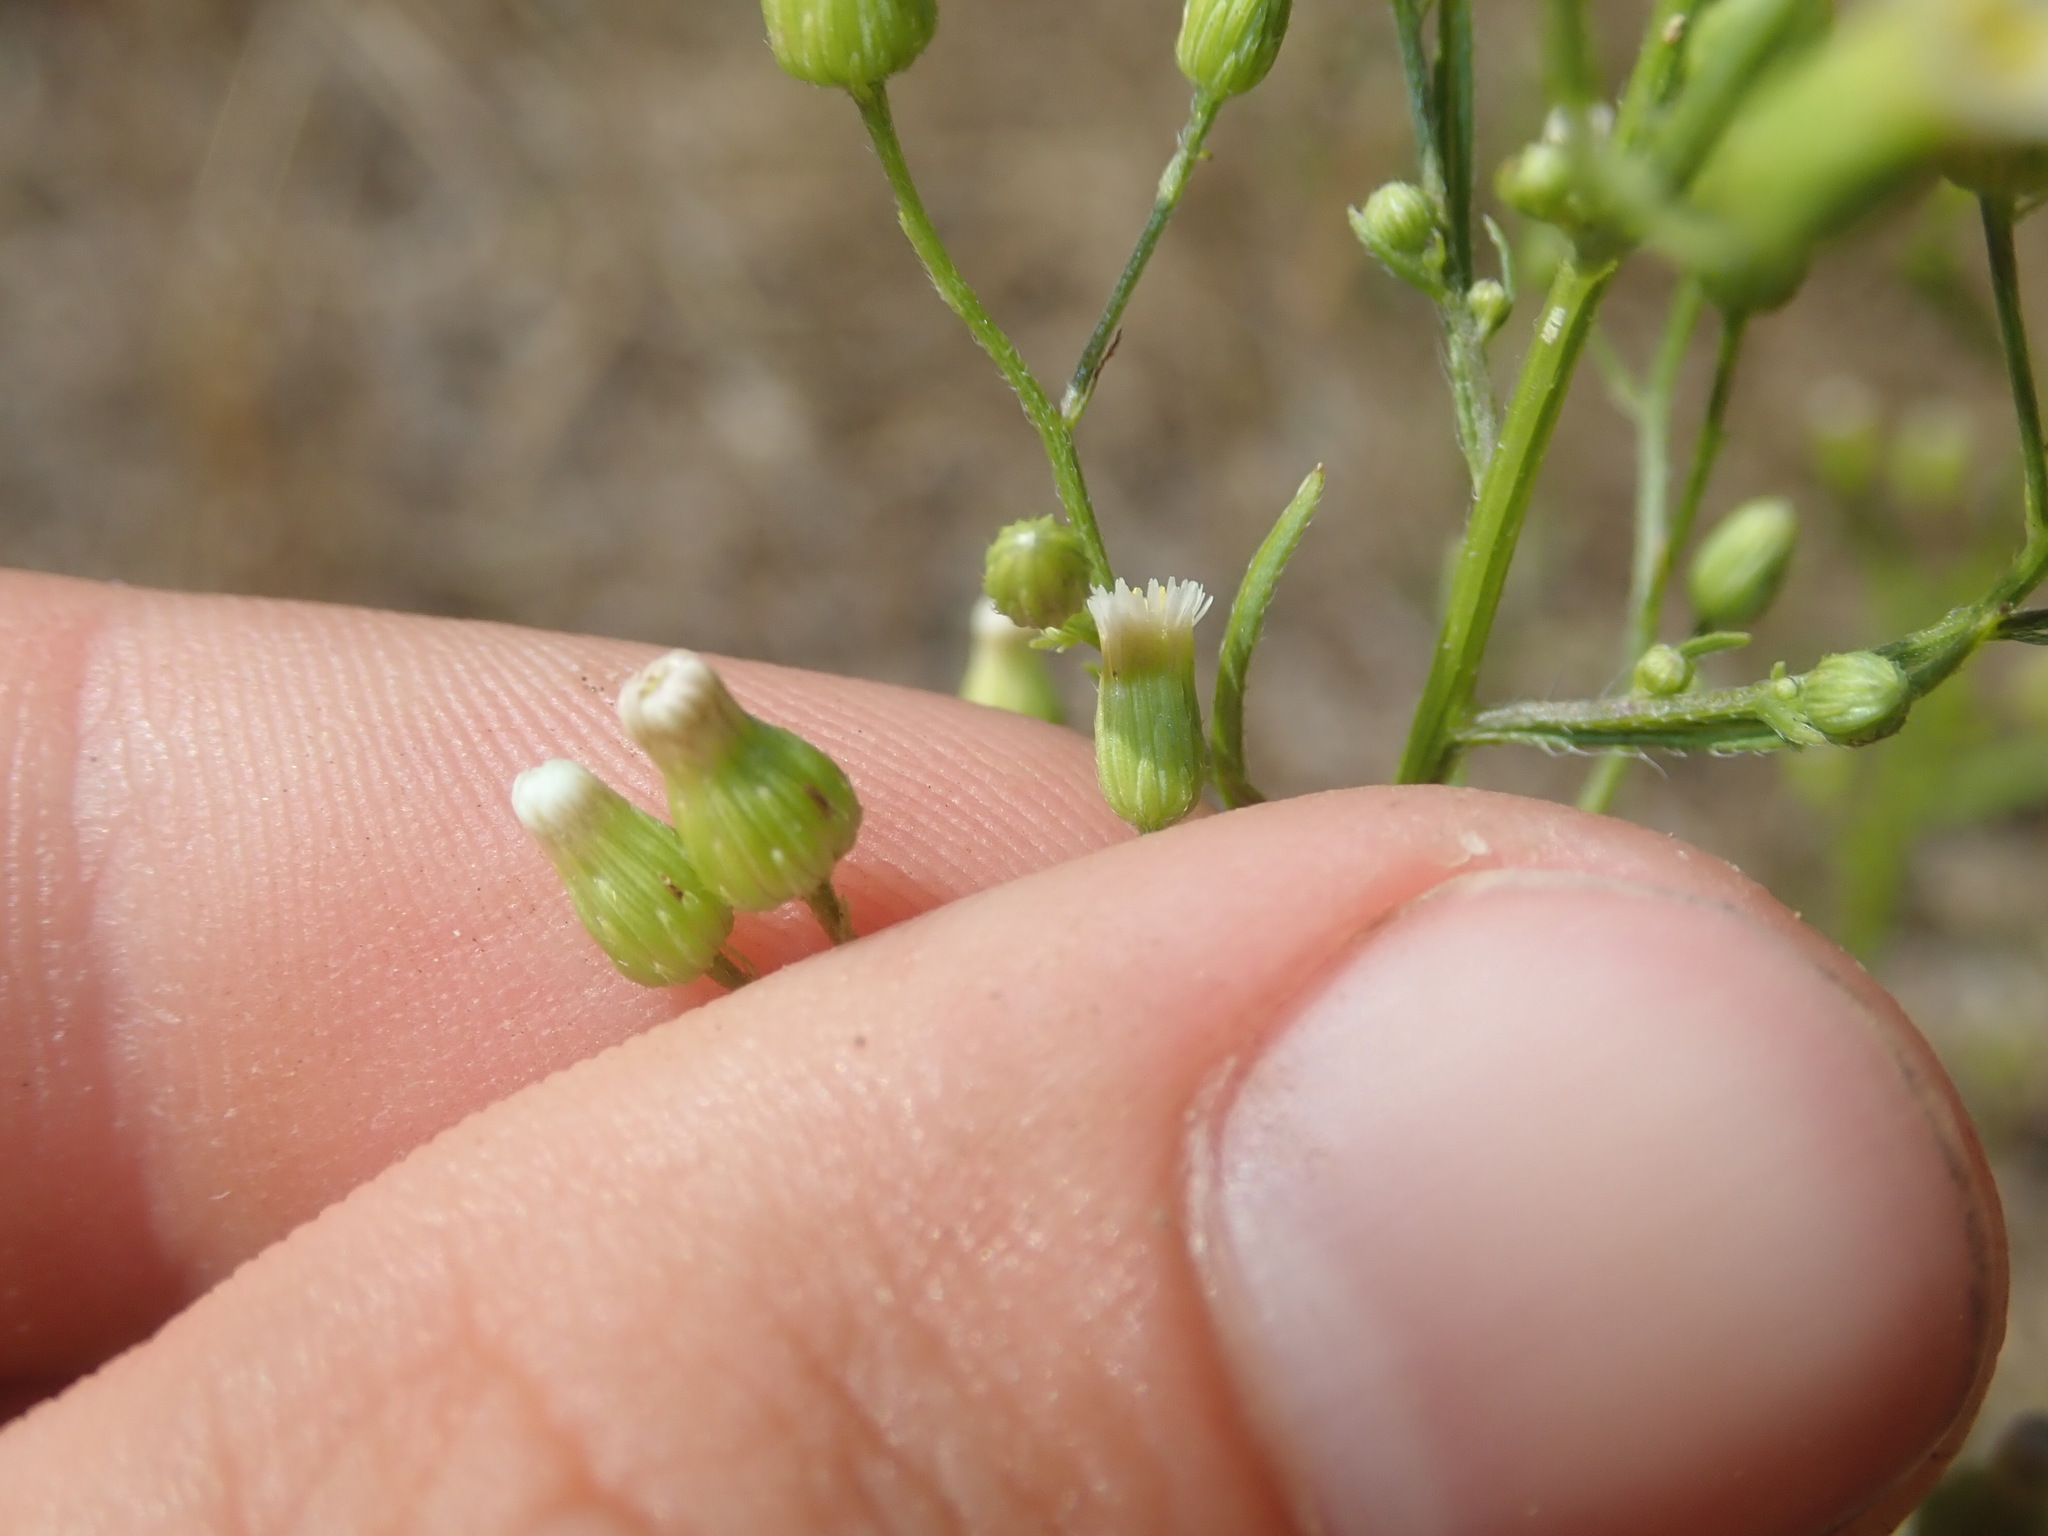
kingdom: Plantae
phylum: Tracheophyta
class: Magnoliopsida
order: Asterales
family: Asteraceae
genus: Erigeron
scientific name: Erigeron canadensis
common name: Canadian fleabane
